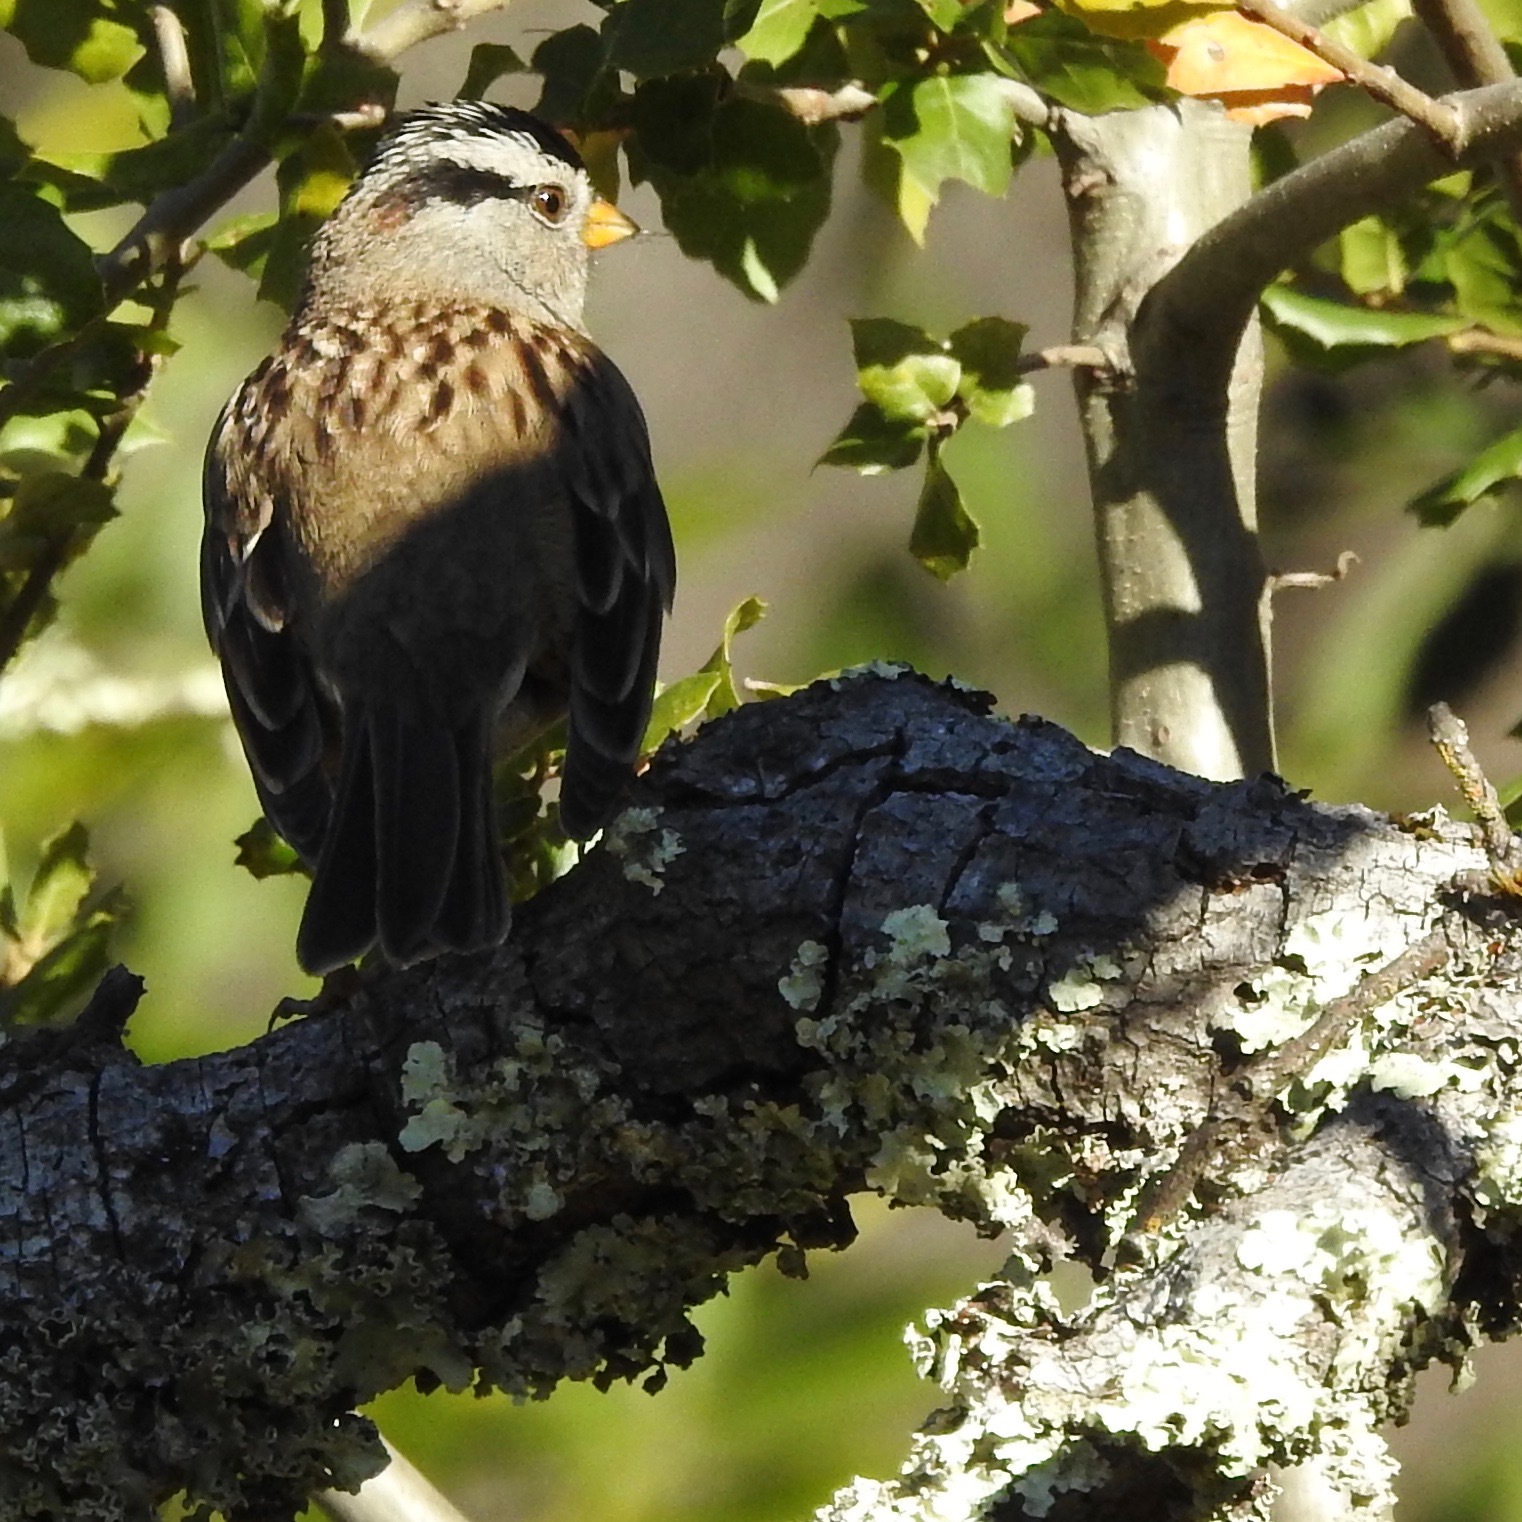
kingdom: Animalia
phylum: Chordata
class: Aves
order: Passeriformes
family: Passerellidae
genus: Zonotrichia
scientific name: Zonotrichia leucophrys
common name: White-crowned sparrow
